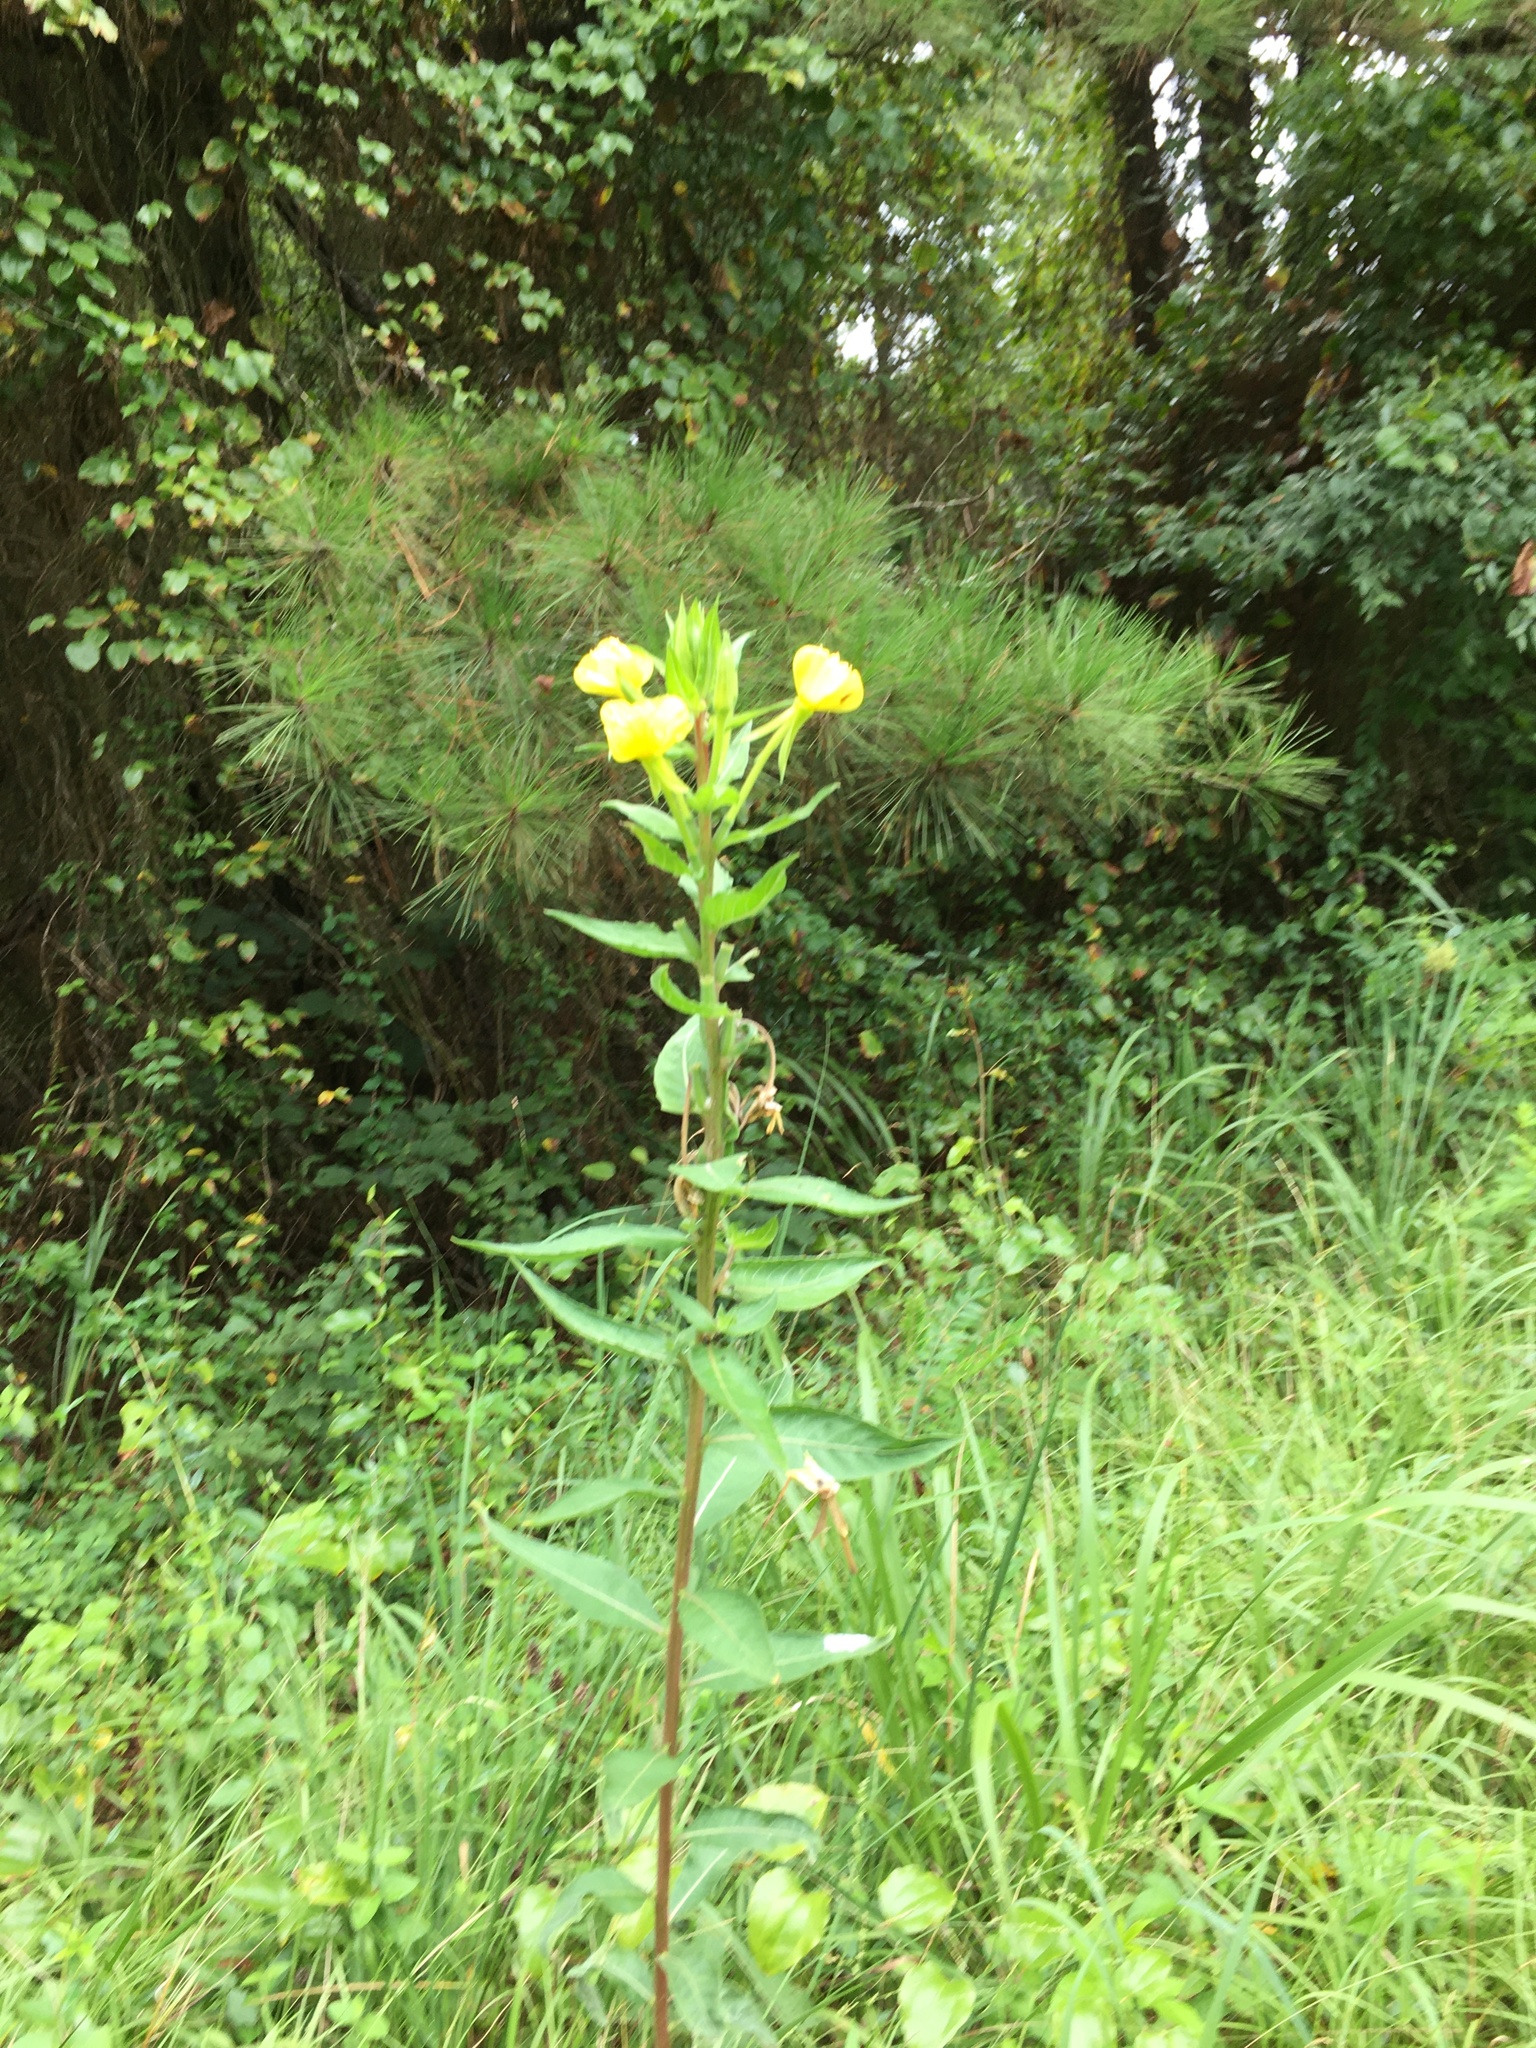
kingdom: Plantae
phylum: Tracheophyta
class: Magnoliopsida
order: Myrtales
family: Onagraceae
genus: Oenothera
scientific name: Oenothera biennis
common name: Common evening-primrose
